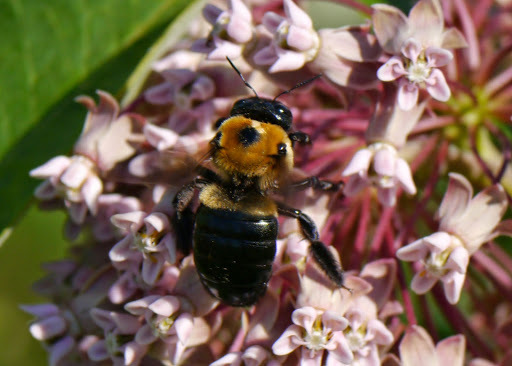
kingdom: Animalia
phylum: Arthropoda
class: Insecta
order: Hymenoptera
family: Apidae
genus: Xylocopa
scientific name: Xylocopa virginica
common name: Carpenter bee
